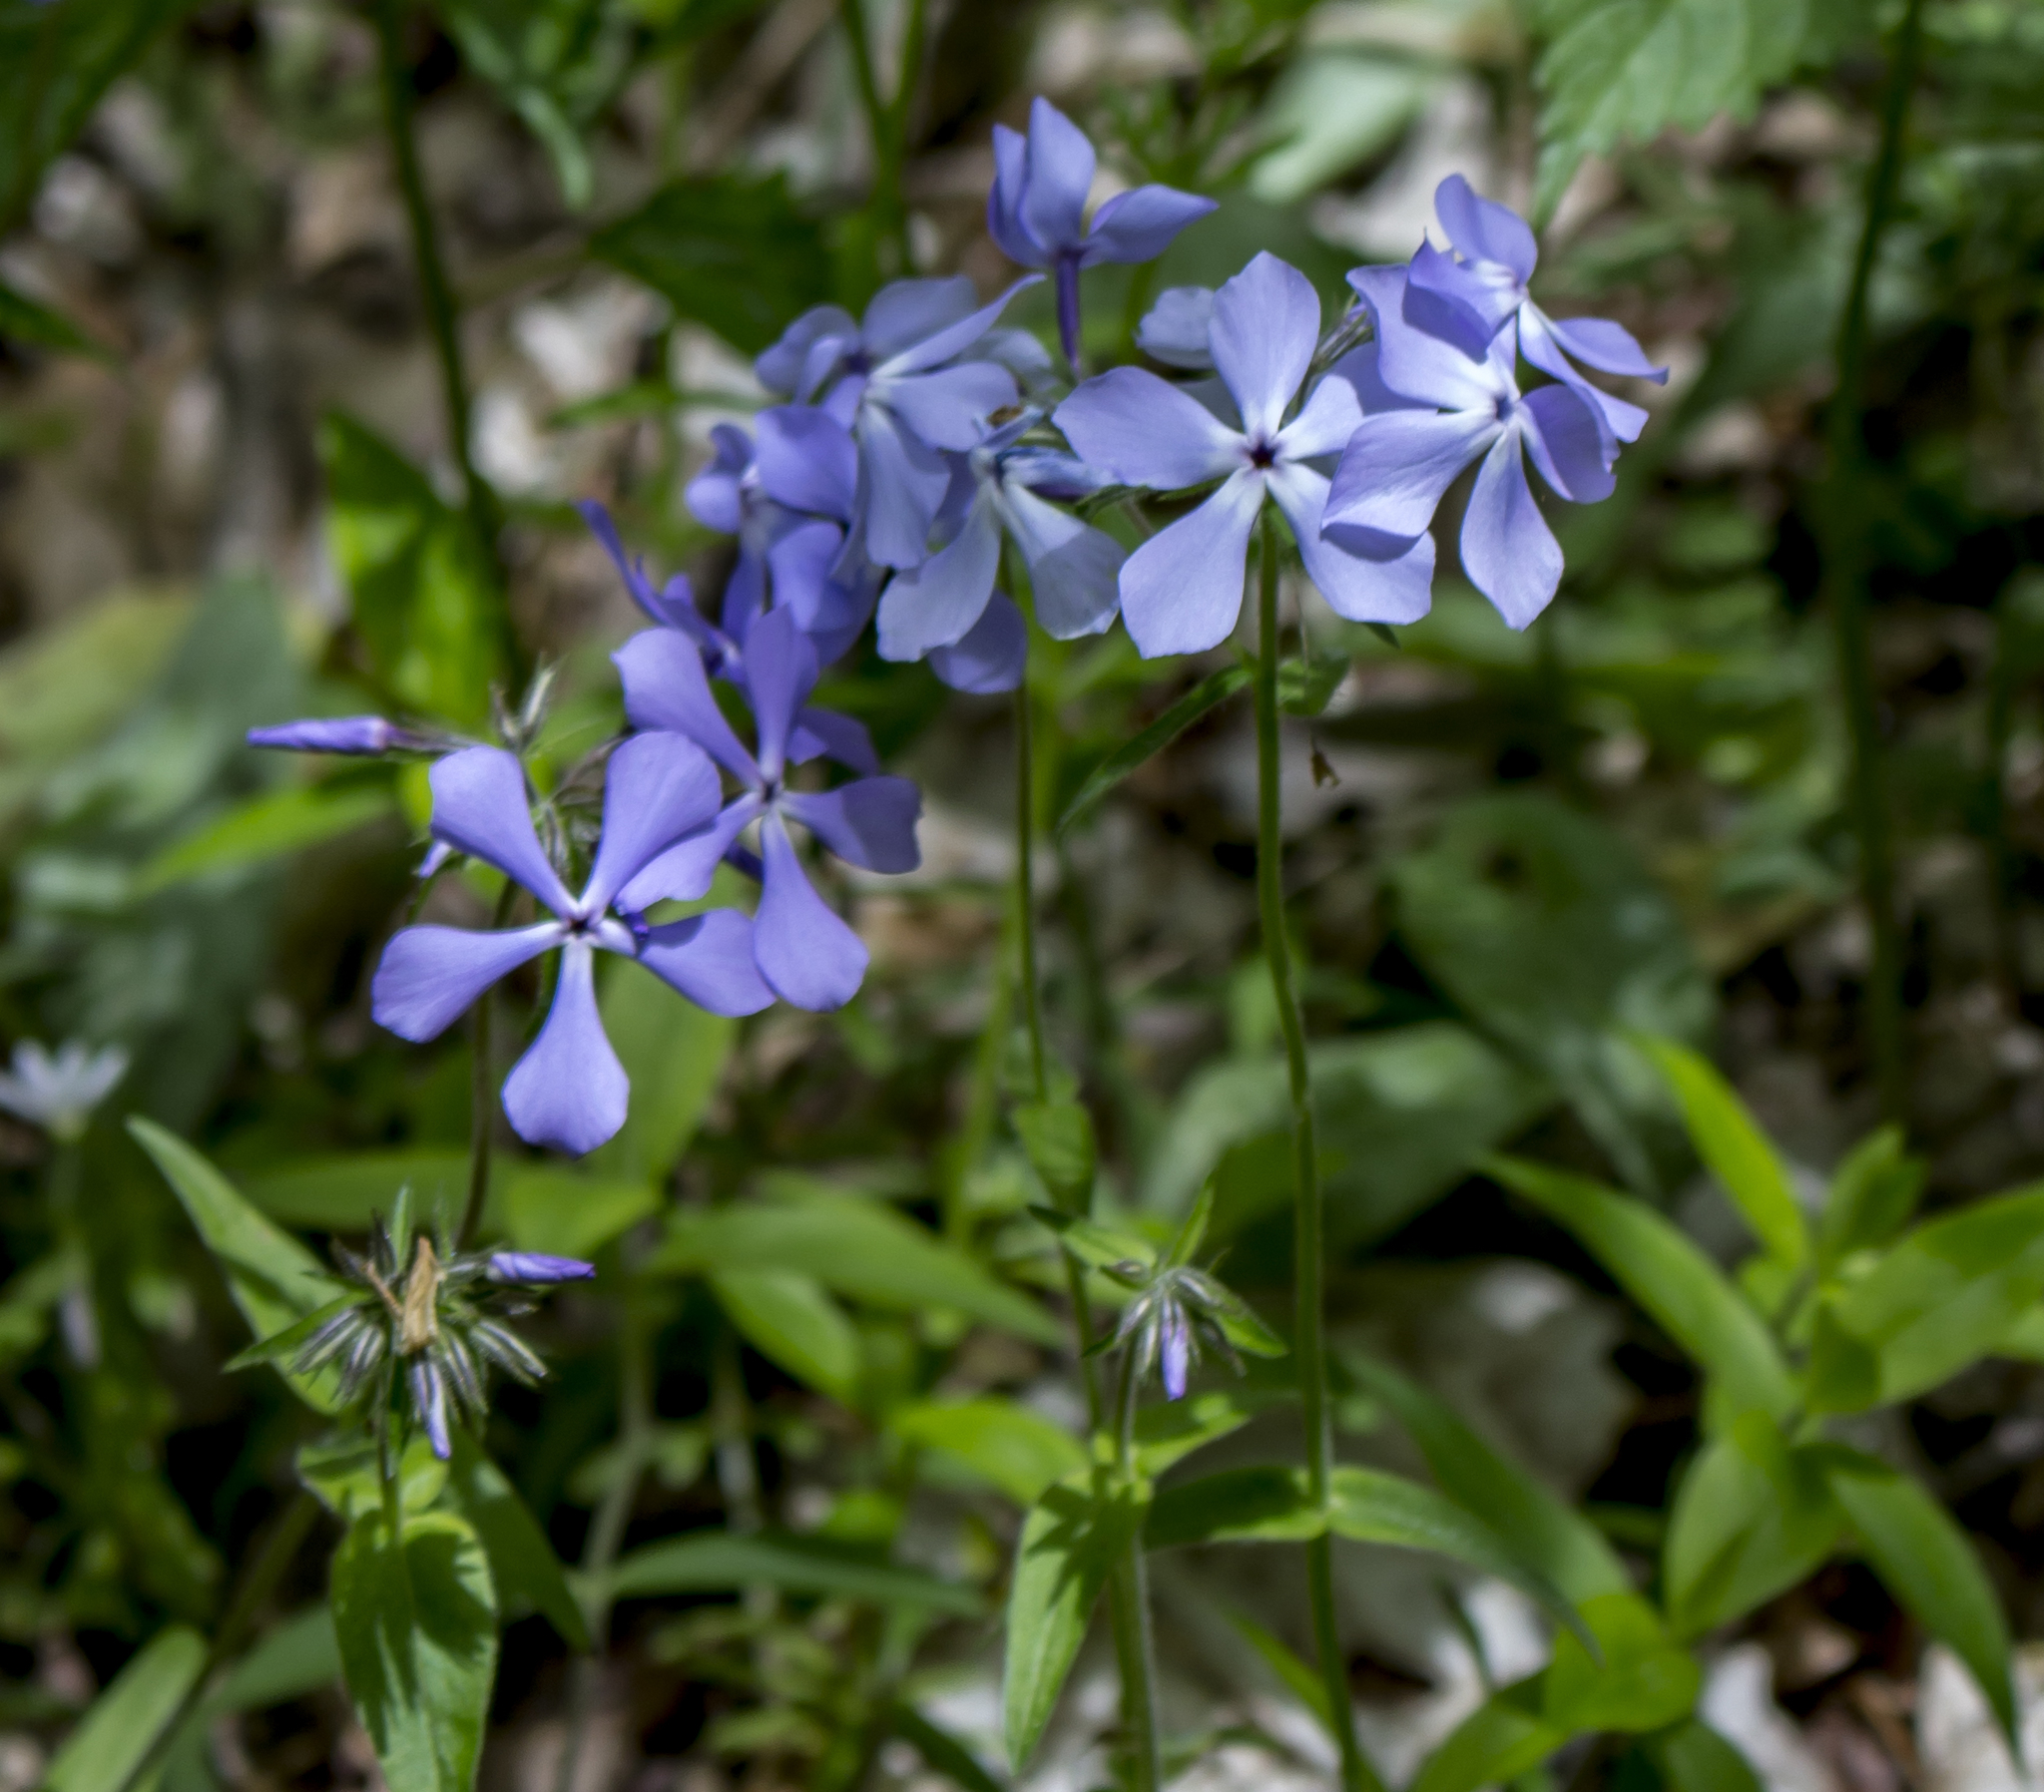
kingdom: Plantae
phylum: Tracheophyta
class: Magnoliopsida
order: Ericales
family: Polemoniaceae
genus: Phlox
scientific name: Phlox divaricata
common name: Blue phlox
